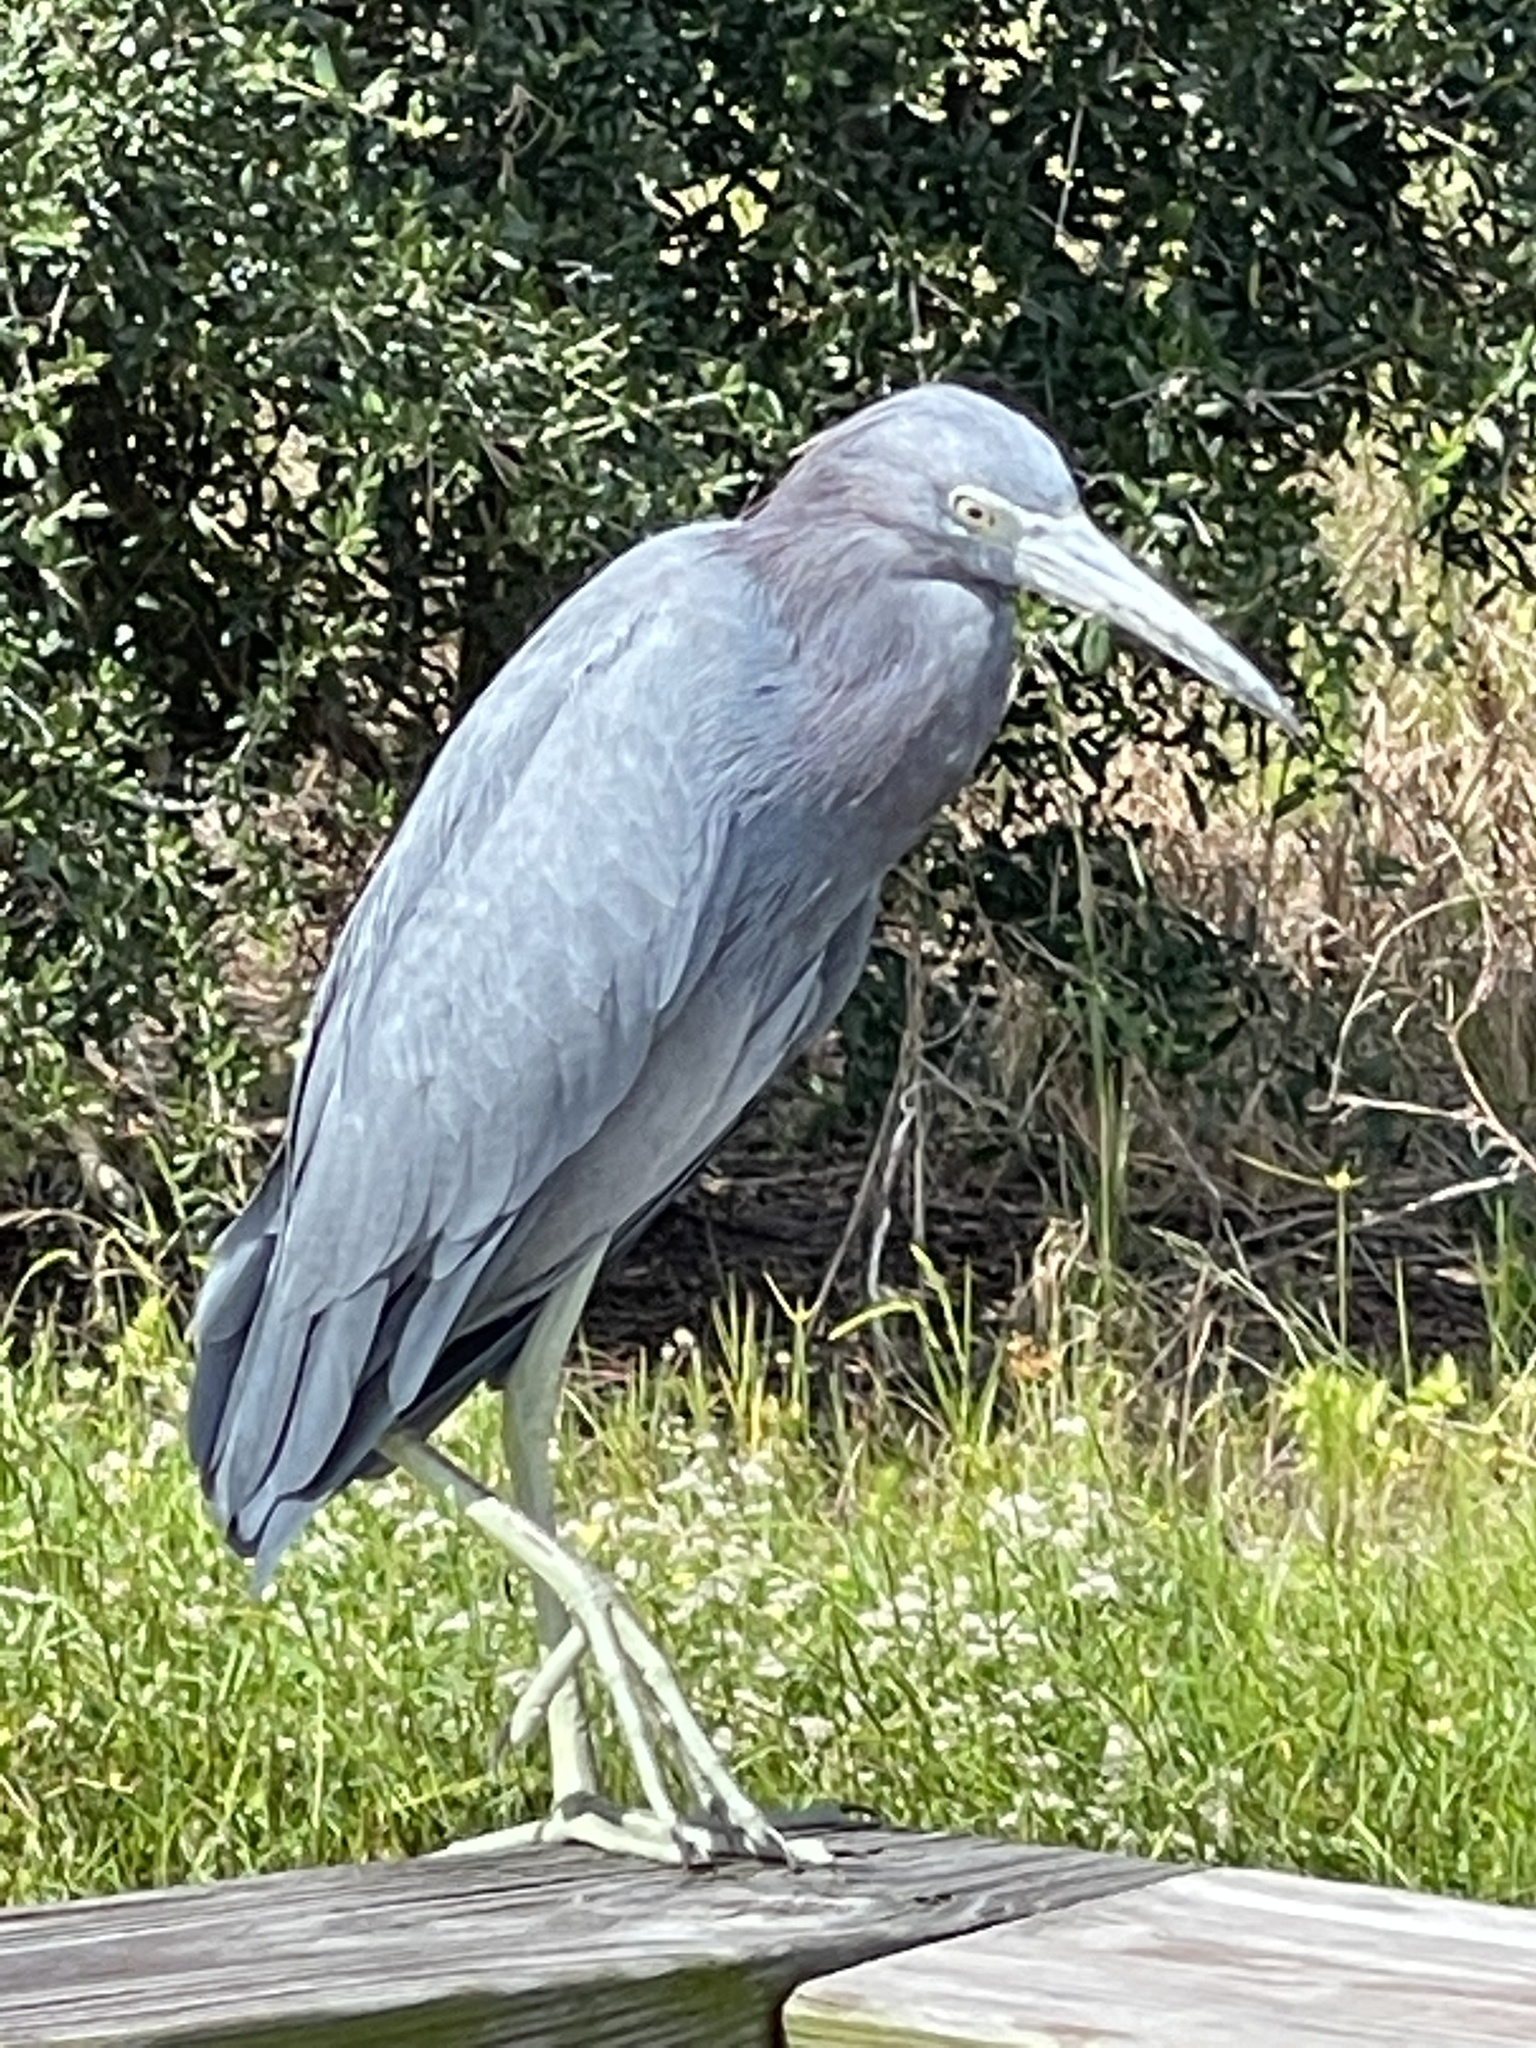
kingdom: Animalia
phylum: Chordata
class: Aves
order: Pelecaniformes
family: Ardeidae
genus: Egretta
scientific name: Egretta caerulea
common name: Little blue heron
